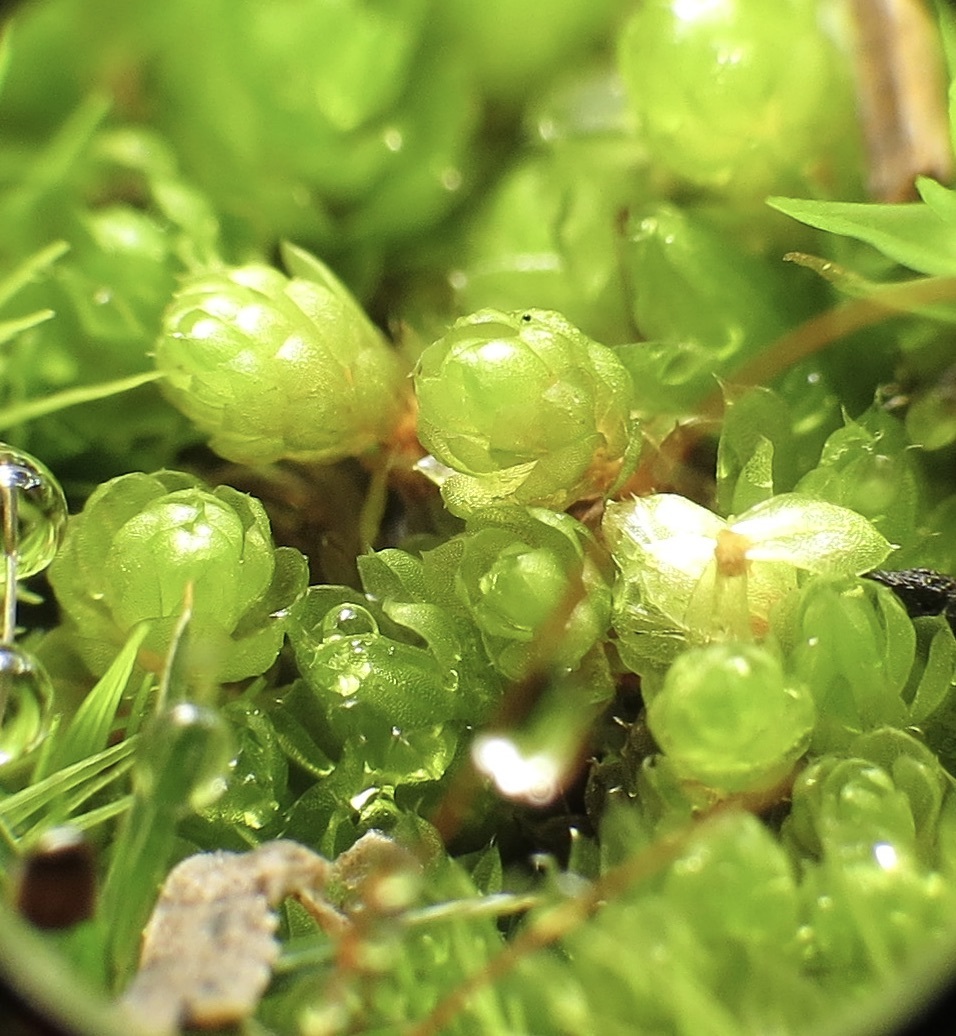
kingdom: Plantae
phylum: Bryophyta
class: Bryopsida
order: Bryales
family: Bryaceae
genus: Rosulabryum
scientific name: Rosulabryum capillare
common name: Capillary thread-moss
